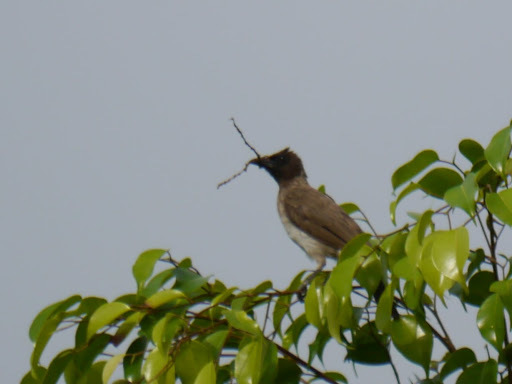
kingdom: Animalia
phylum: Chordata
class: Aves
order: Passeriformes
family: Pycnonotidae
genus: Pycnonotus
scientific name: Pycnonotus barbatus
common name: Common bulbul
